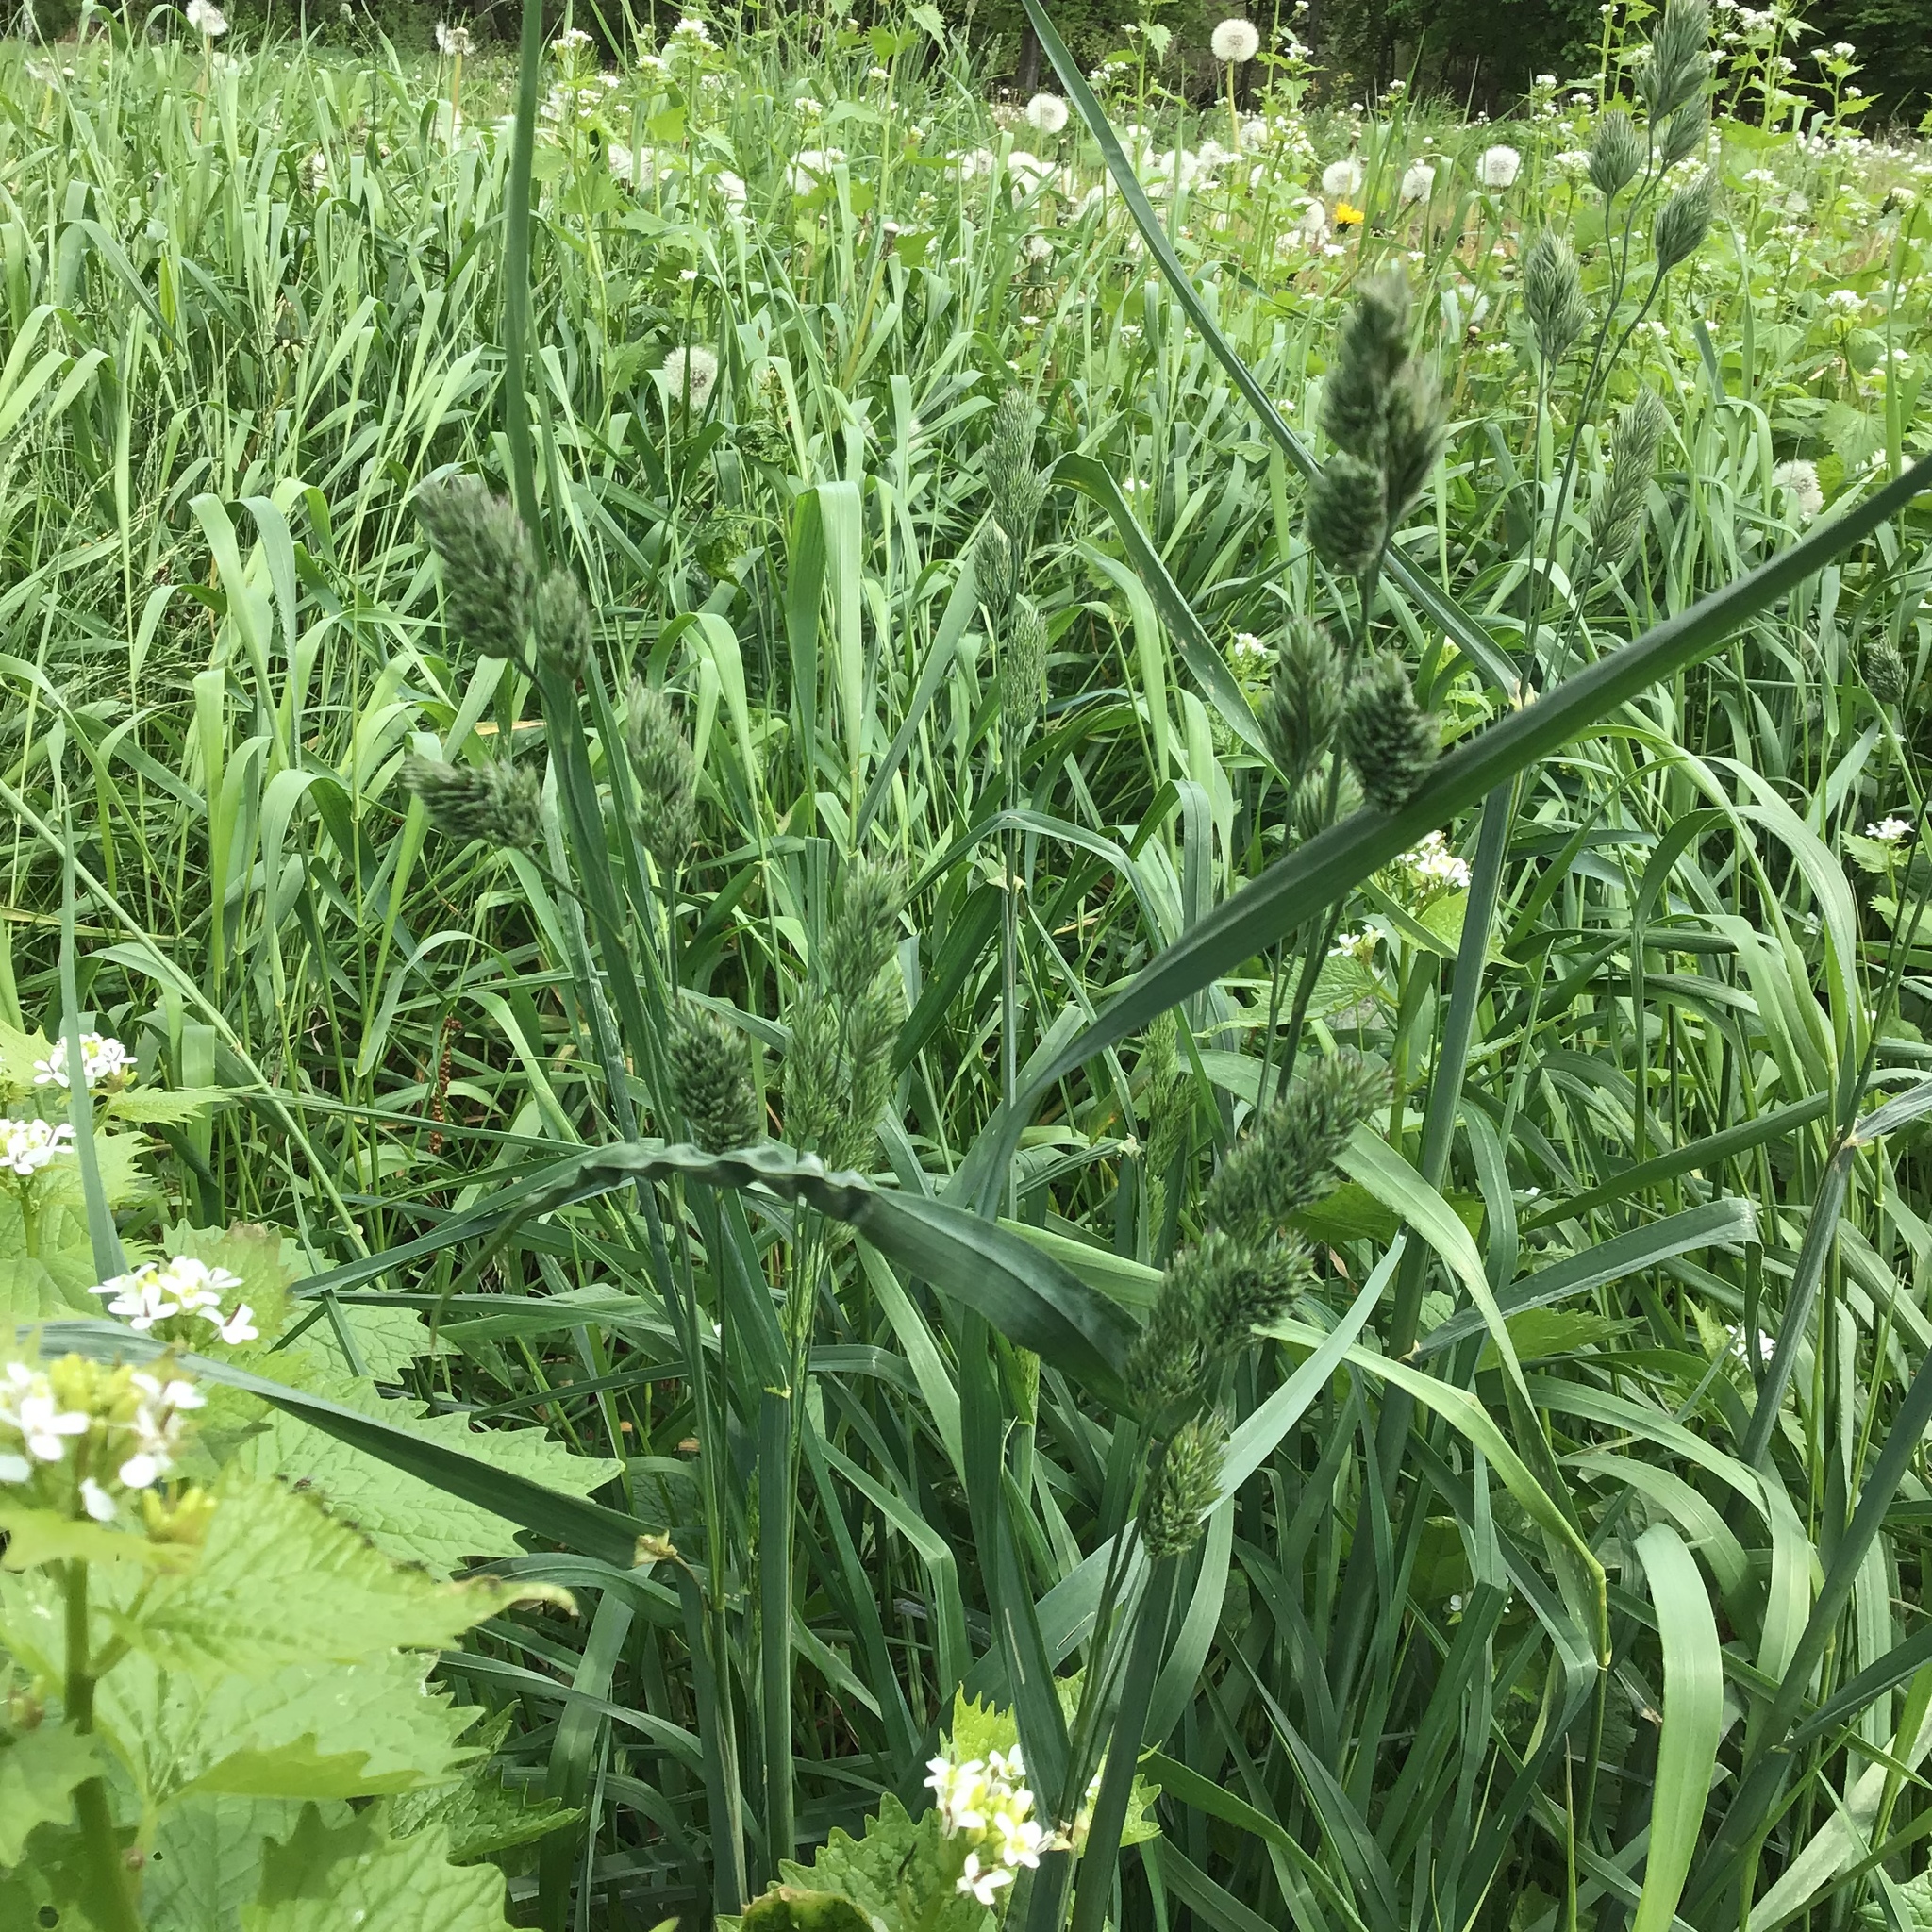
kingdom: Plantae
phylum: Tracheophyta
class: Liliopsida
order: Poales
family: Poaceae
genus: Dactylis
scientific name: Dactylis glomerata
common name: Orchardgrass
